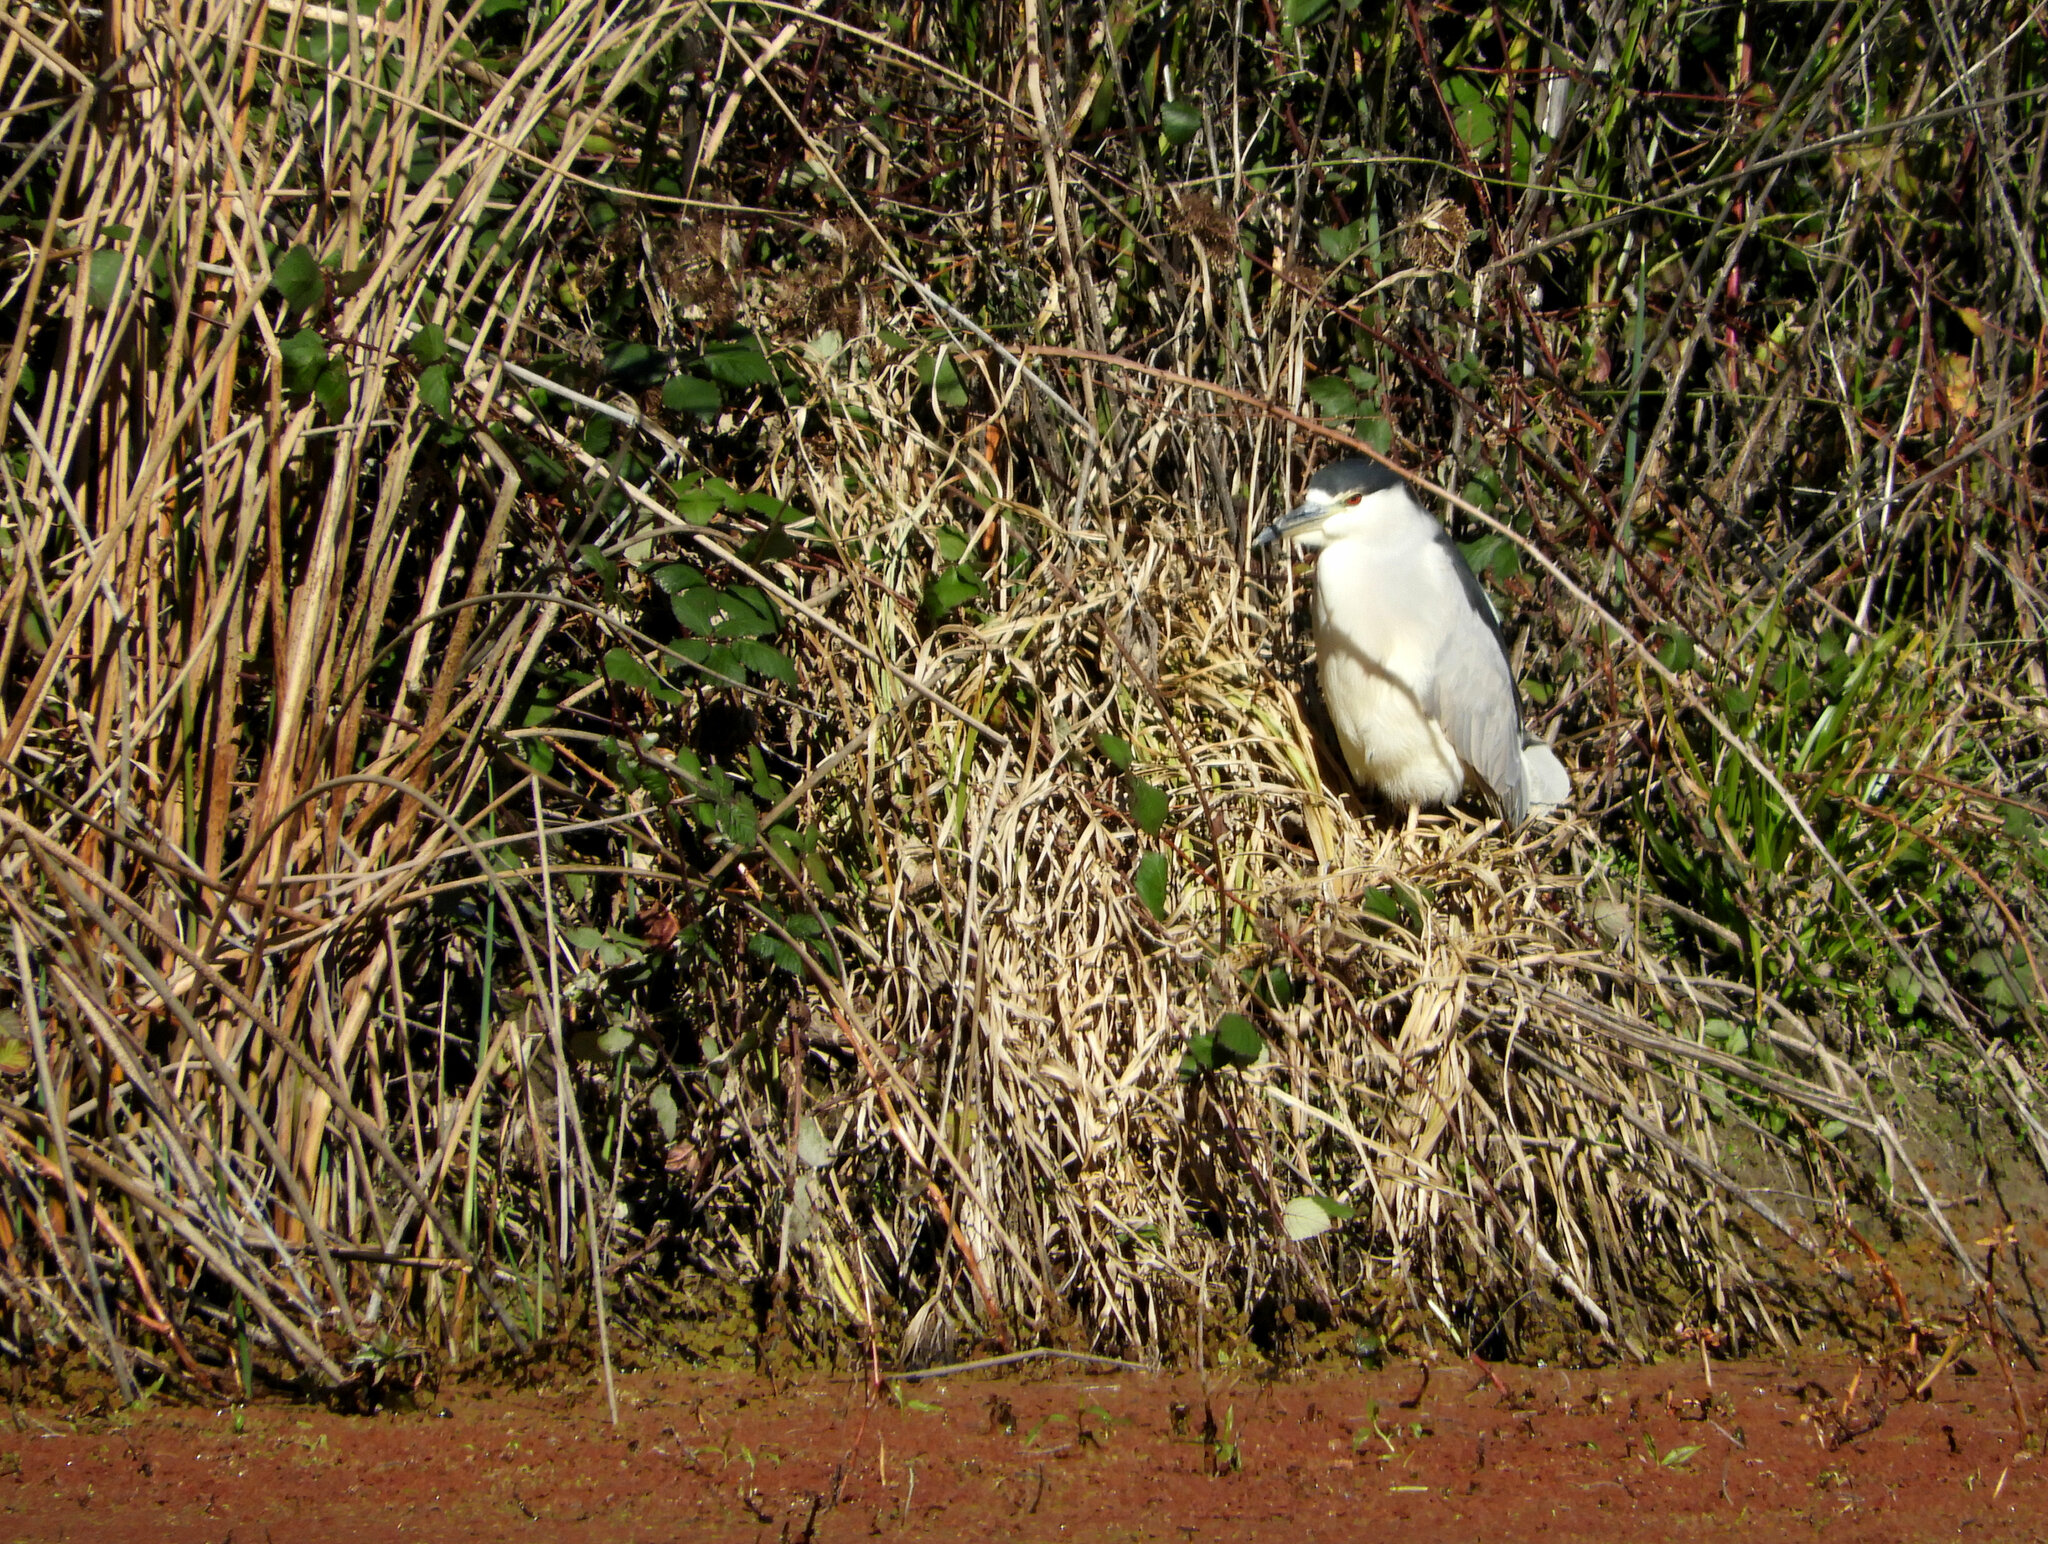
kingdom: Animalia
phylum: Chordata
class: Aves
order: Pelecaniformes
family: Ardeidae
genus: Nycticorax
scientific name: Nycticorax nycticorax
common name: Black-crowned night heron
